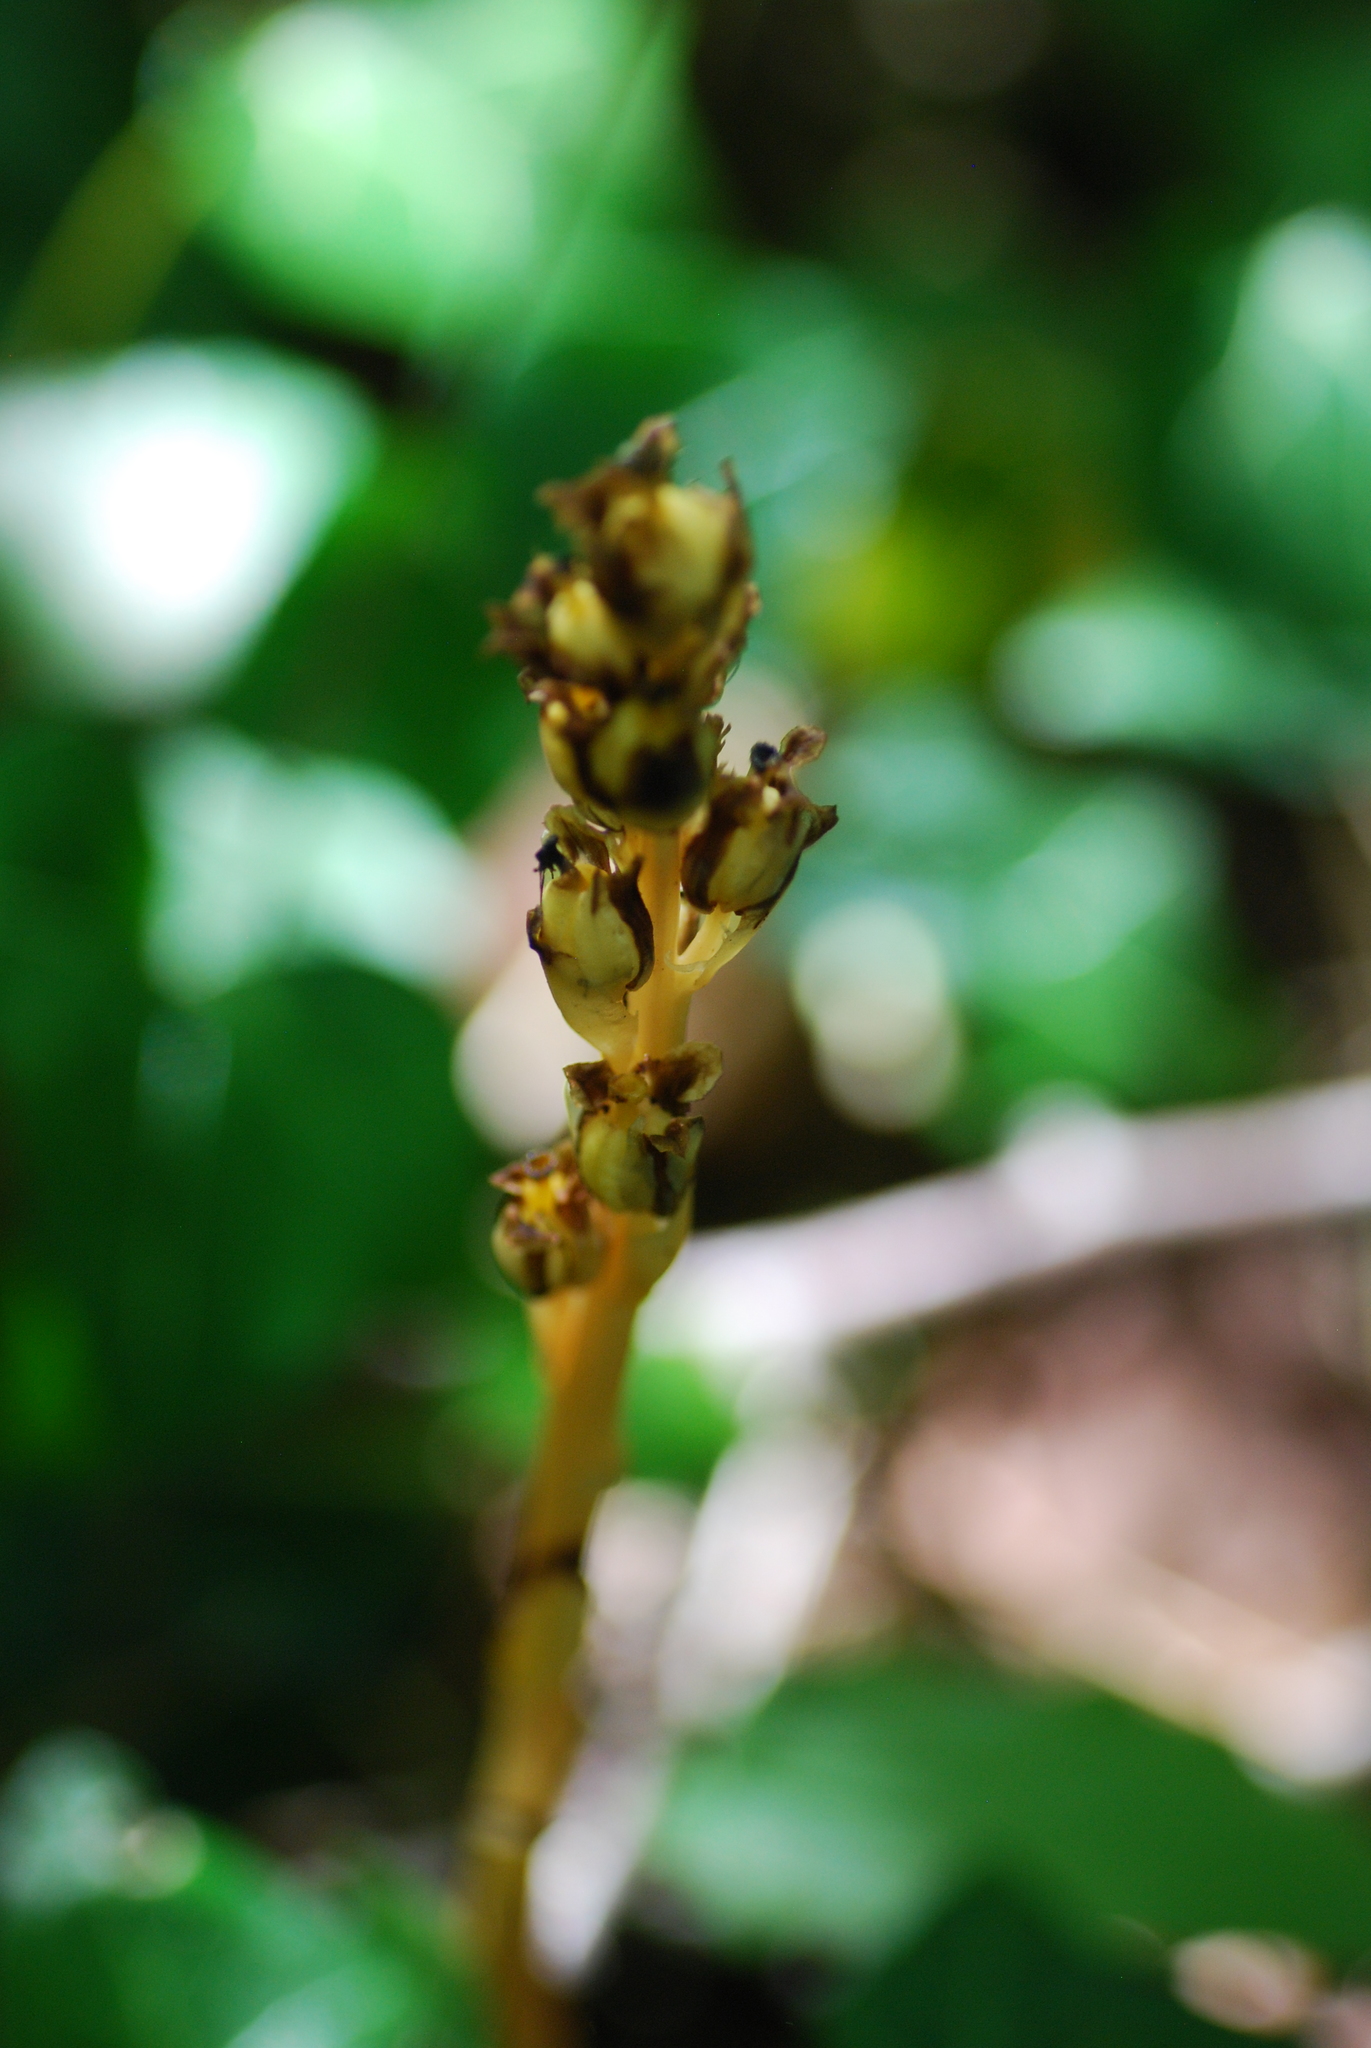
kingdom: Plantae
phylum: Tracheophyta
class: Magnoliopsida
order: Ericales
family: Ericaceae
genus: Hypopitys
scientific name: Hypopitys monotropa
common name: Yellow bird's-nest
